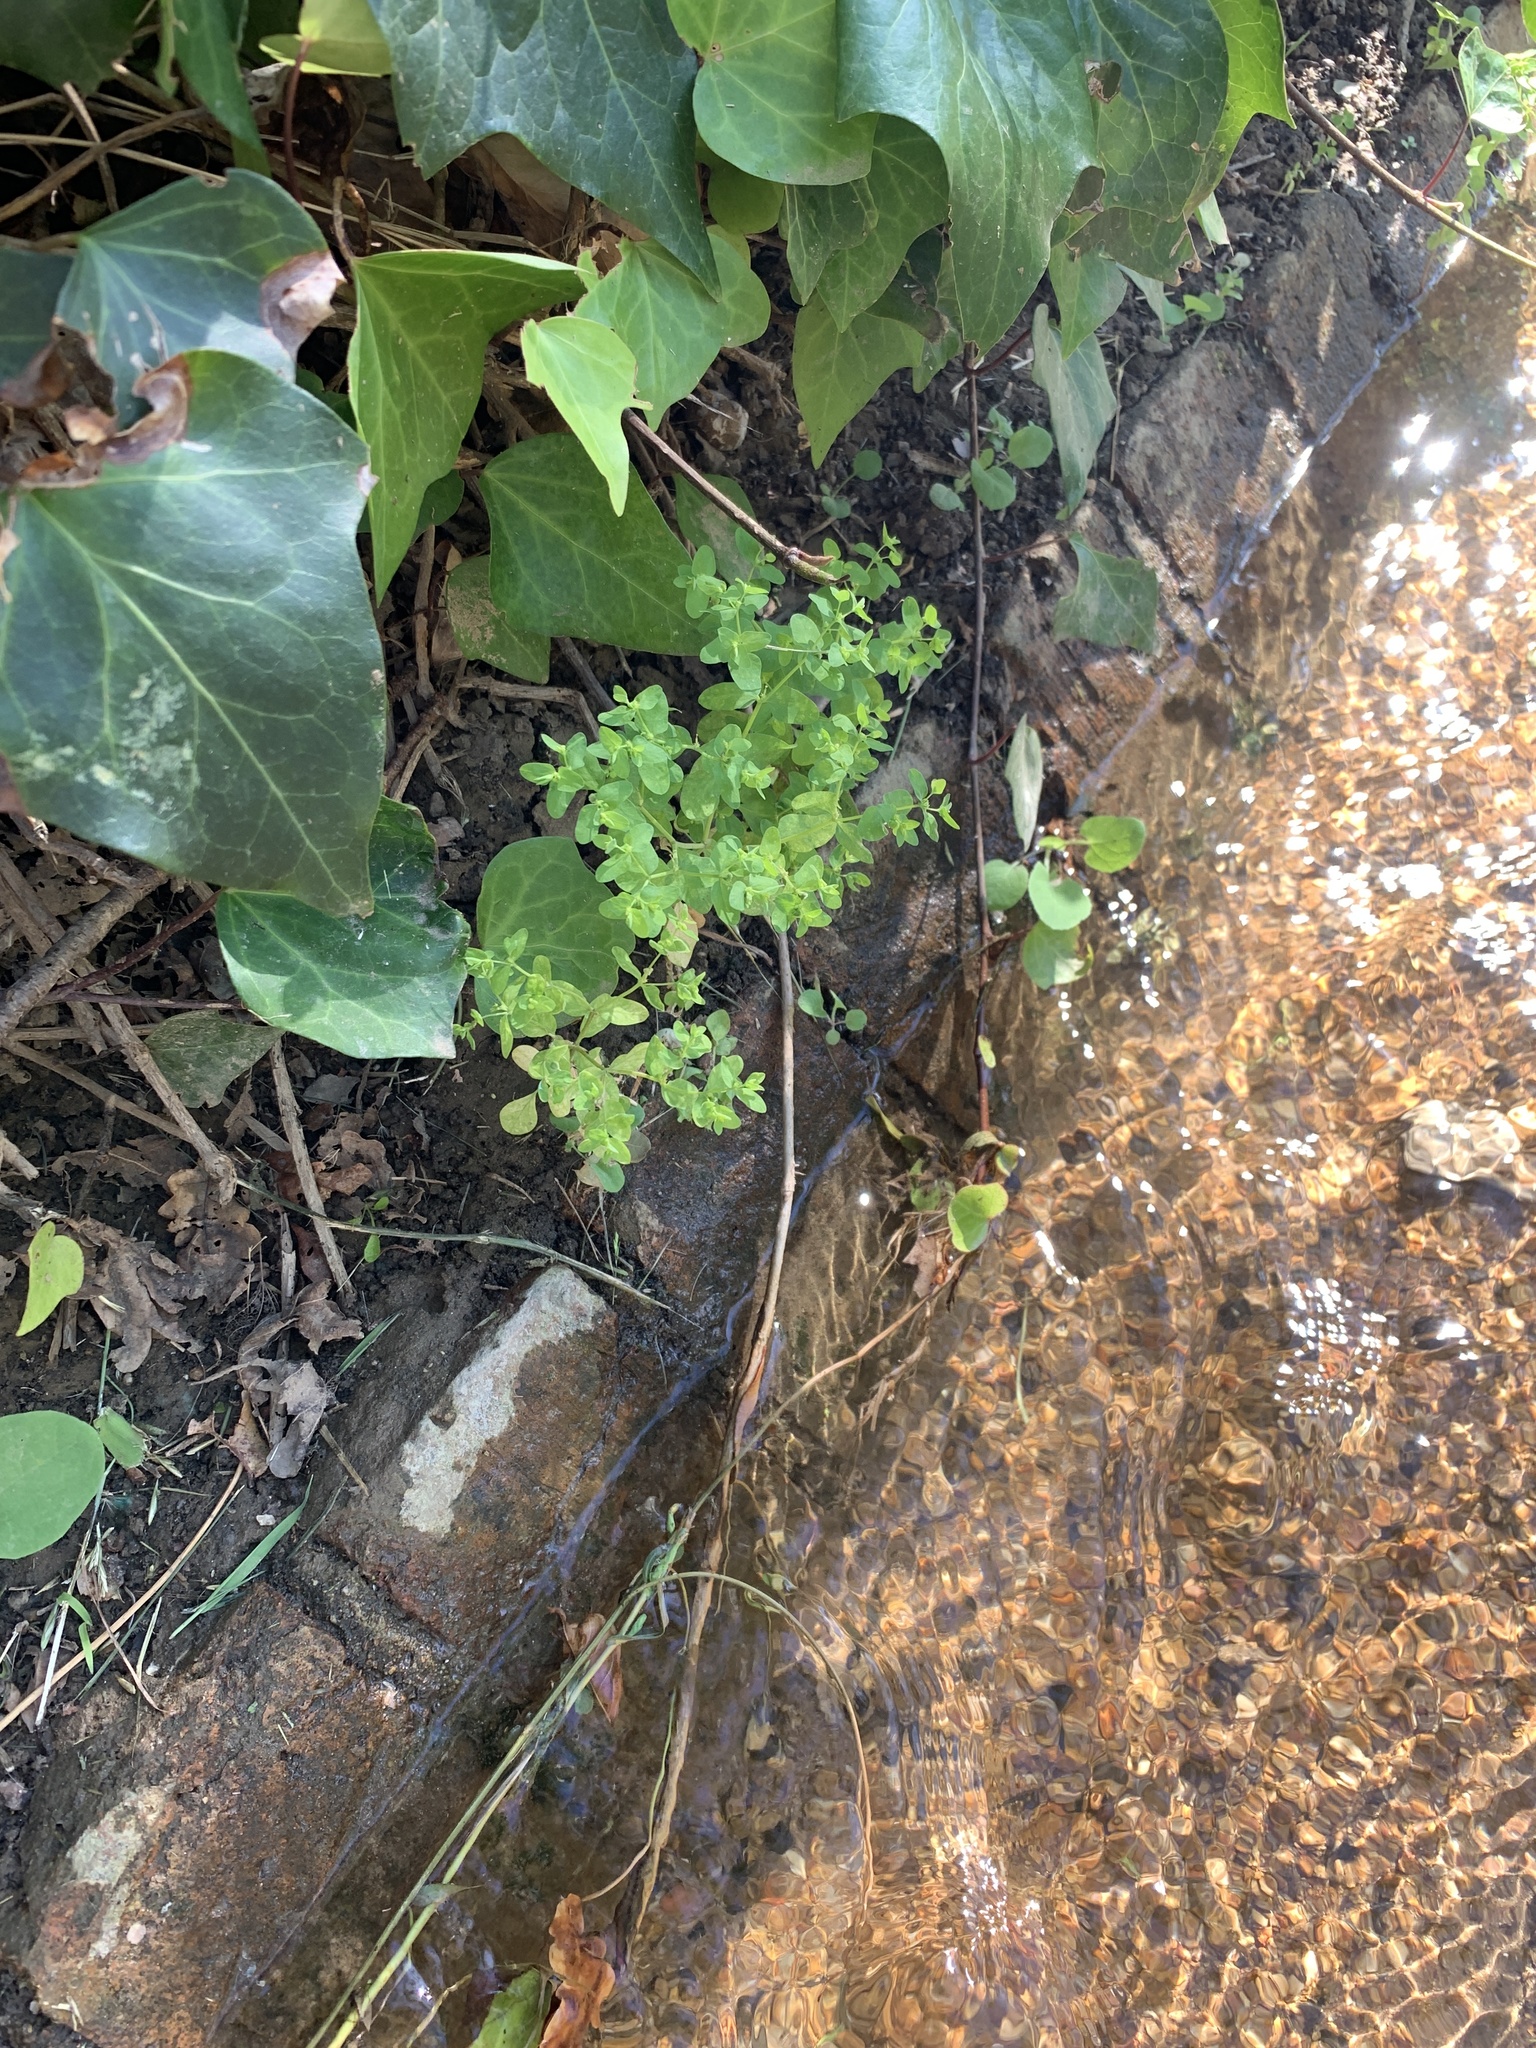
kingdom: Plantae
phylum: Tracheophyta
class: Magnoliopsida
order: Malpighiales
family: Euphorbiaceae
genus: Euphorbia
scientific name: Euphorbia peplus
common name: Petty spurge
